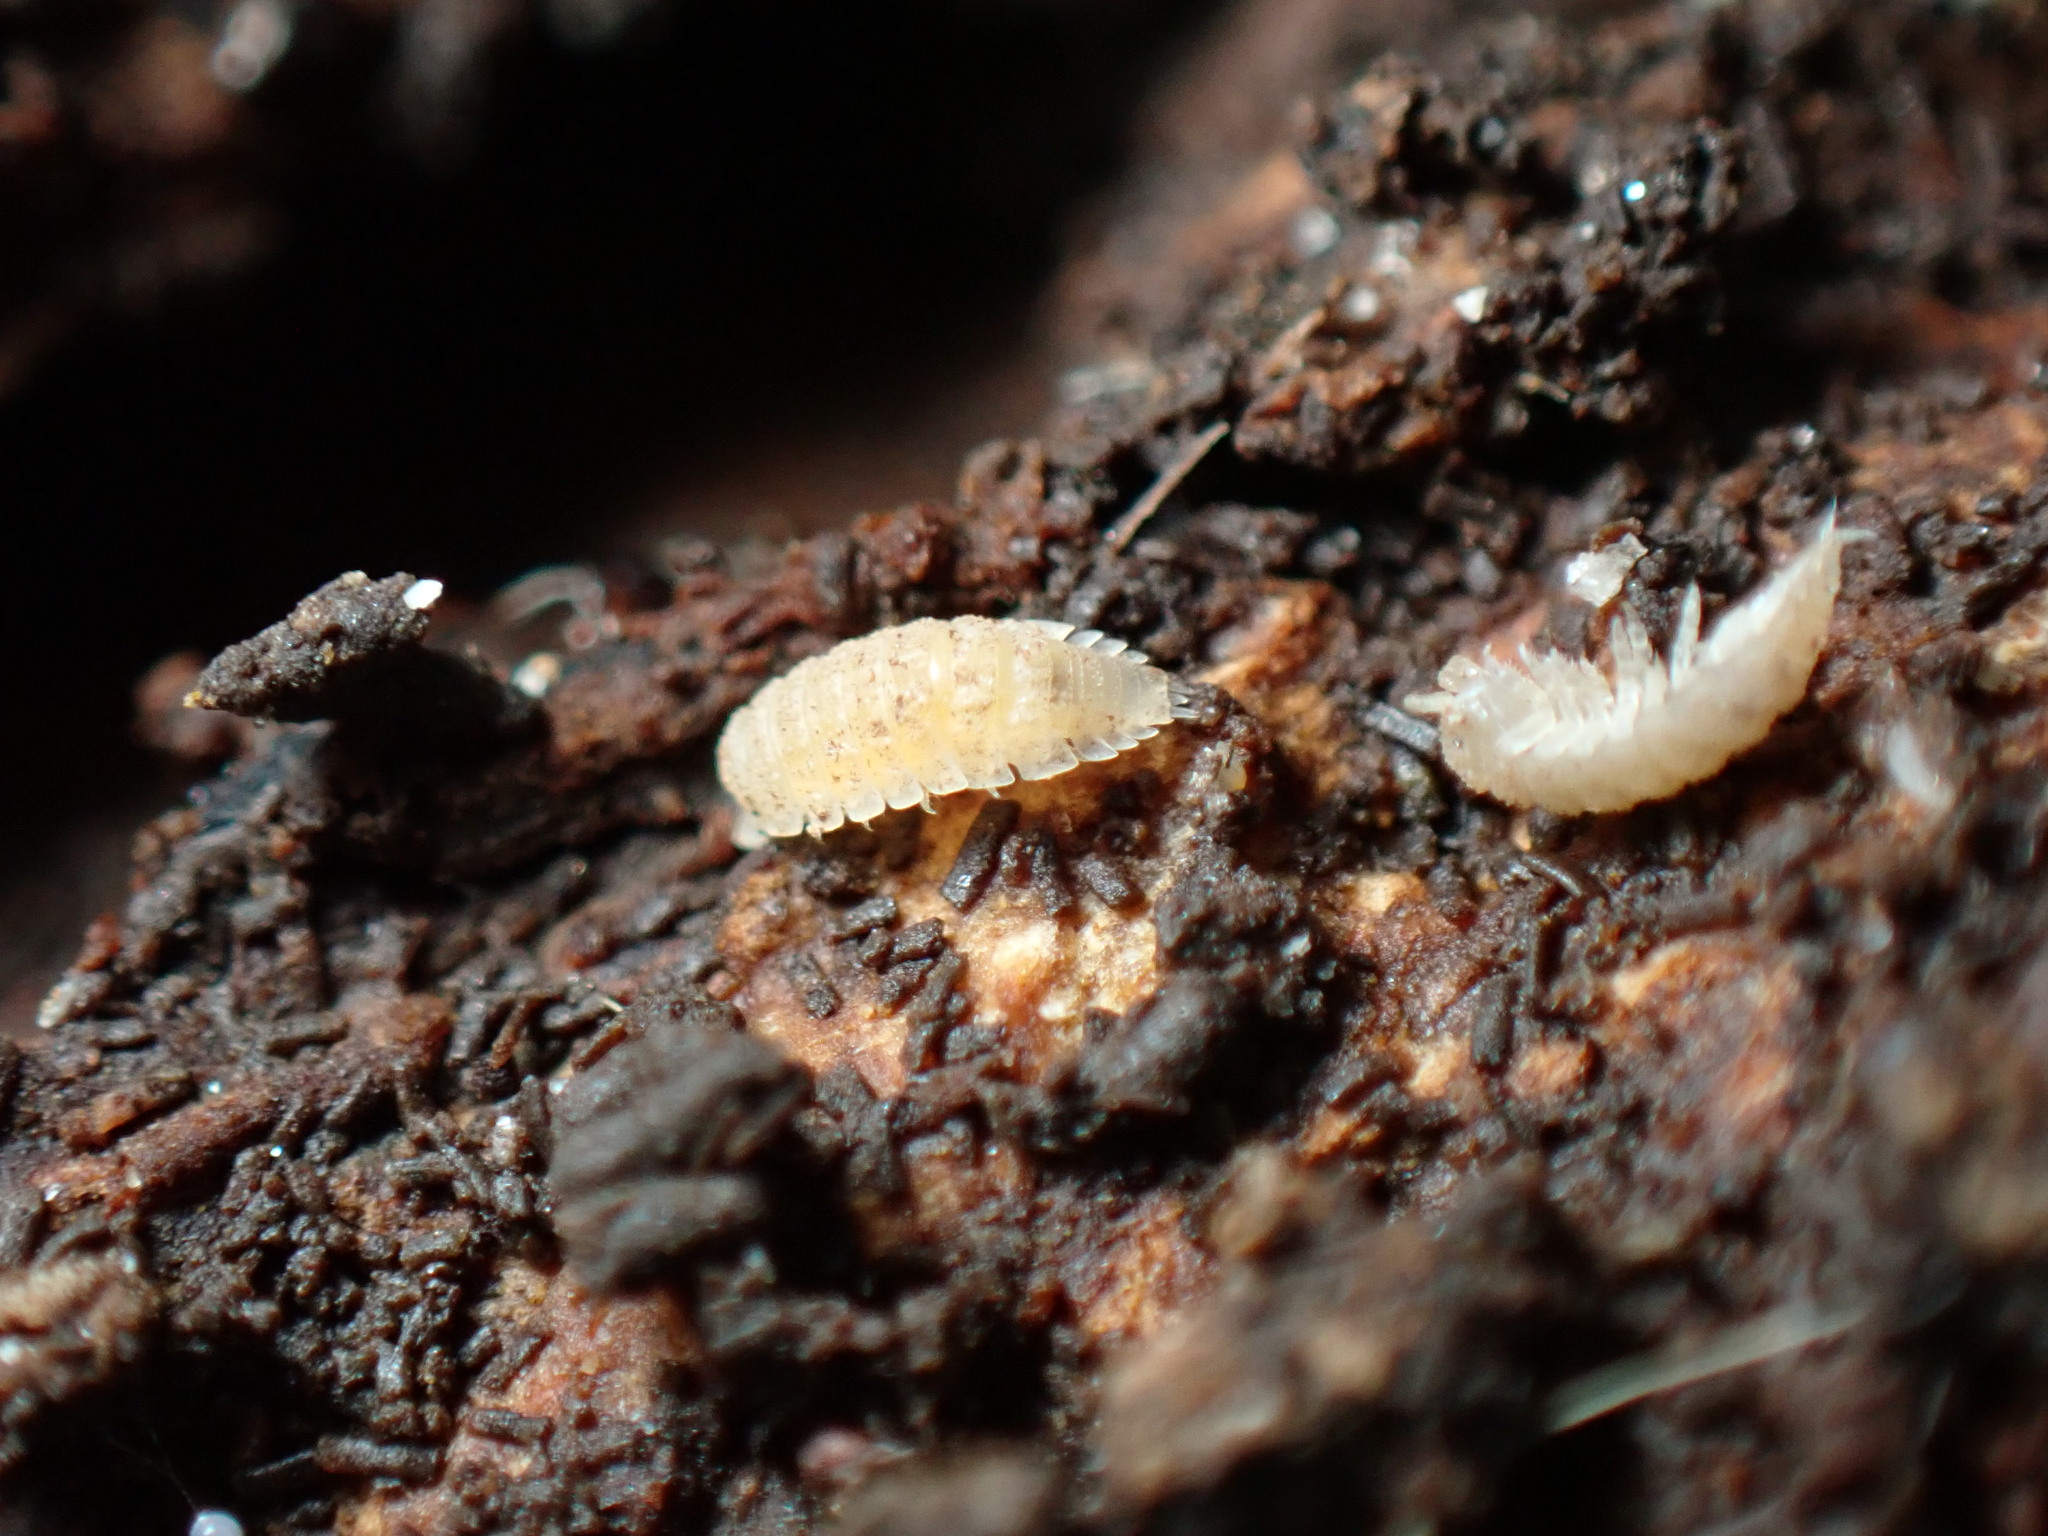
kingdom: Animalia
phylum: Arthropoda
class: Malacostraca
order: Isopoda
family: Trichoniscidae
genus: Haplophthalmus
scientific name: Haplophthalmus danicus
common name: Pillbug
